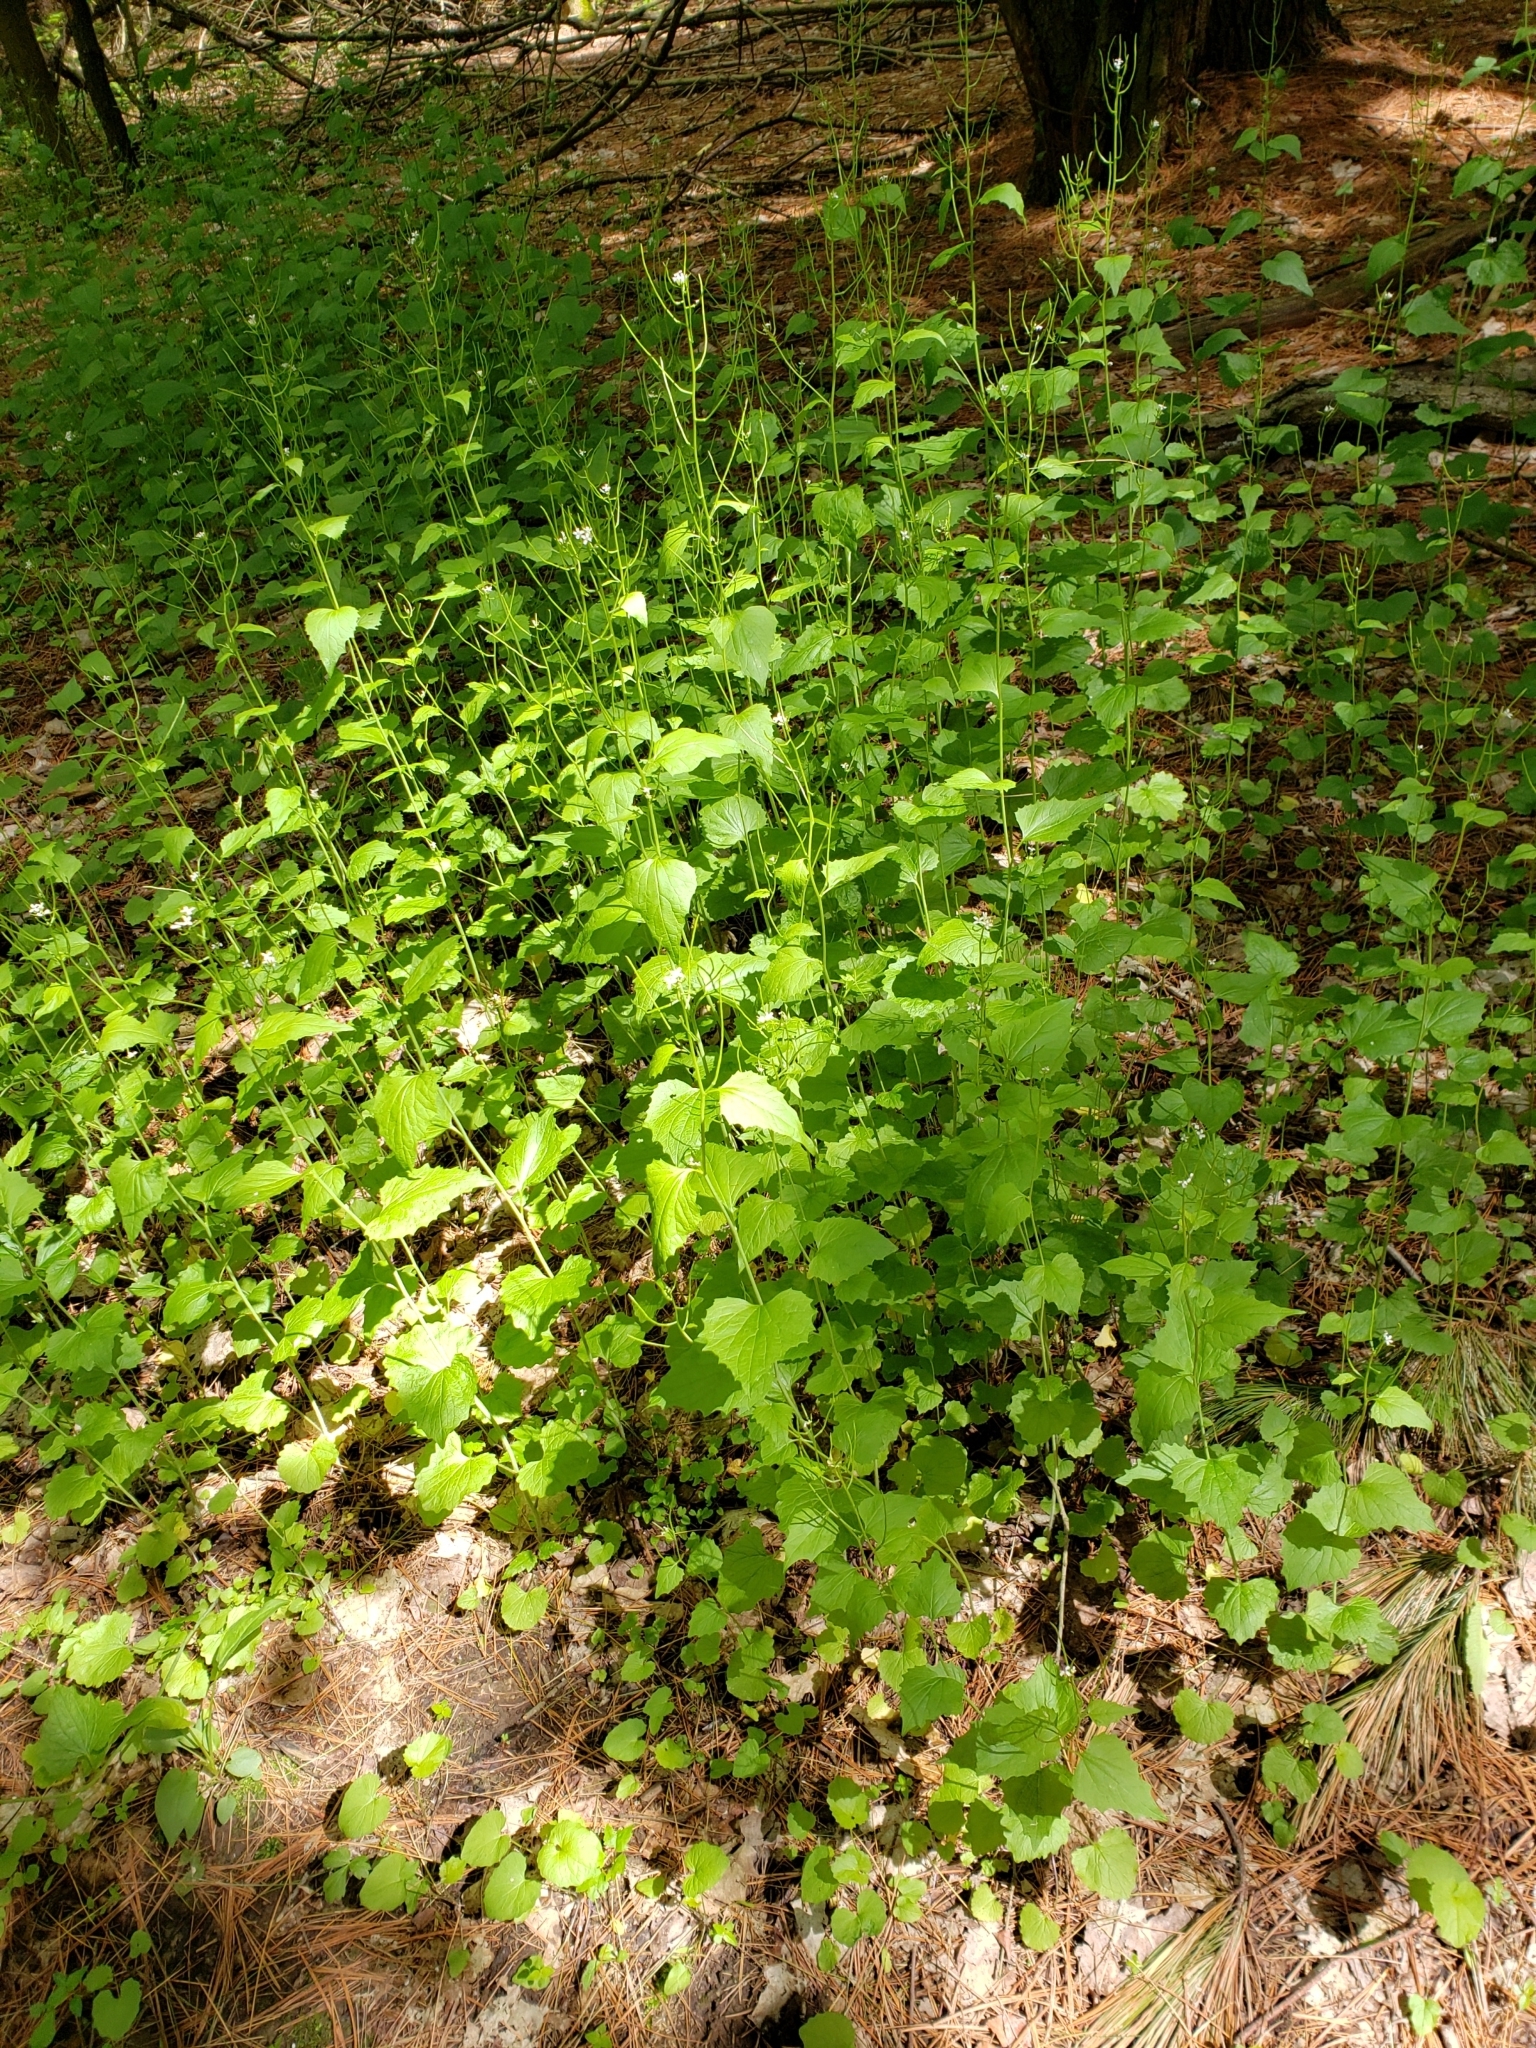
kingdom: Plantae
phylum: Tracheophyta
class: Magnoliopsida
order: Brassicales
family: Brassicaceae
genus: Alliaria
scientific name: Alliaria petiolata
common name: Garlic mustard
